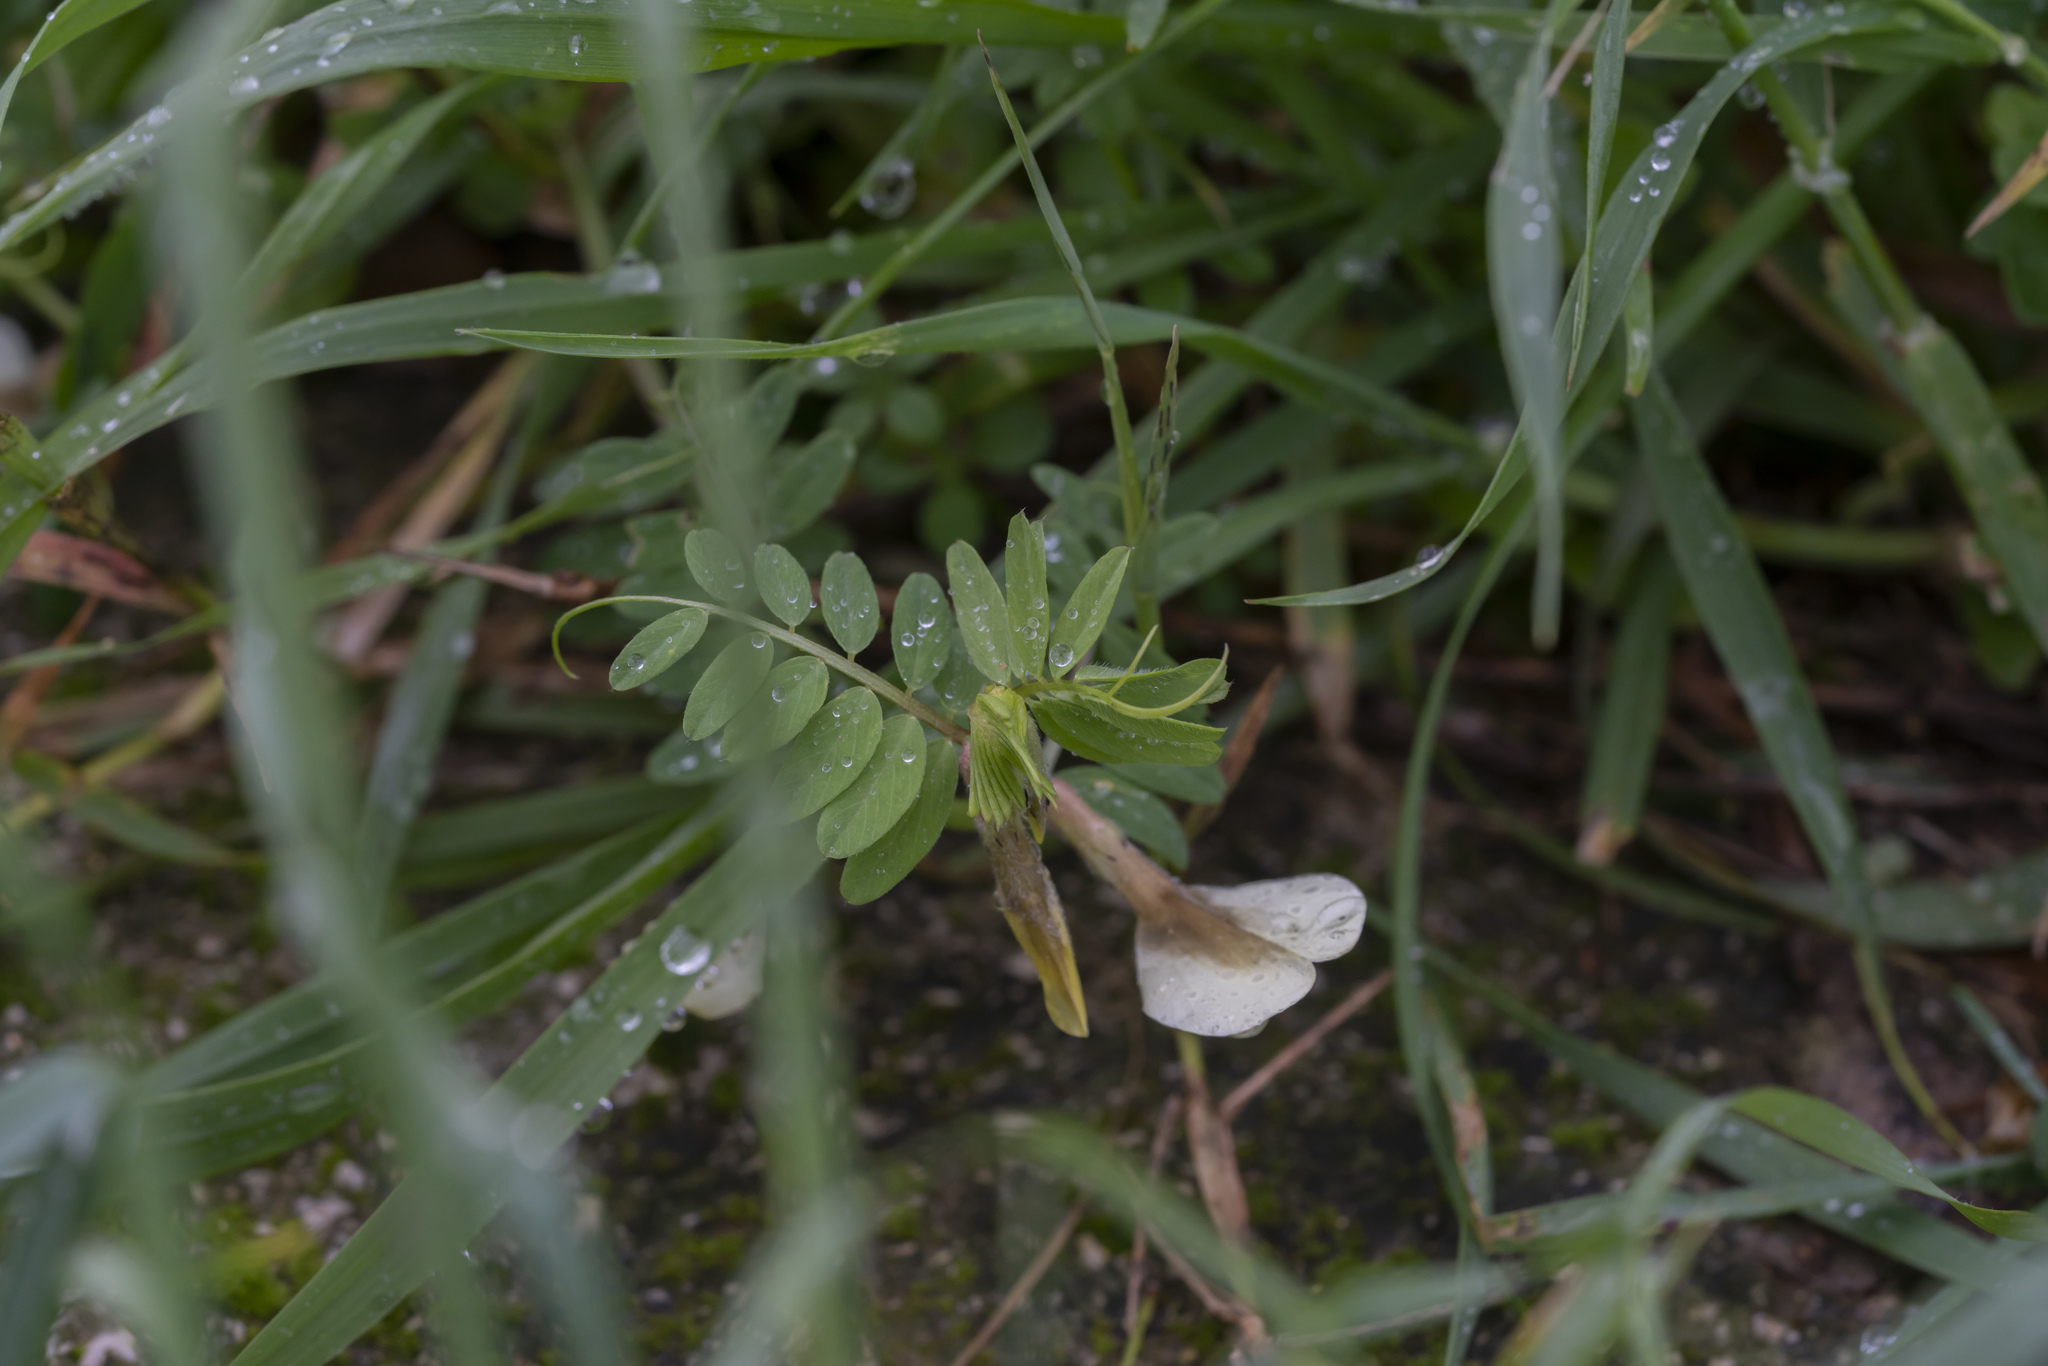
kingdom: Plantae
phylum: Tracheophyta
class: Magnoliopsida
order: Fabales
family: Fabaceae
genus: Vicia
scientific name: Vicia hybrida
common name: Hairy yellow vetch
